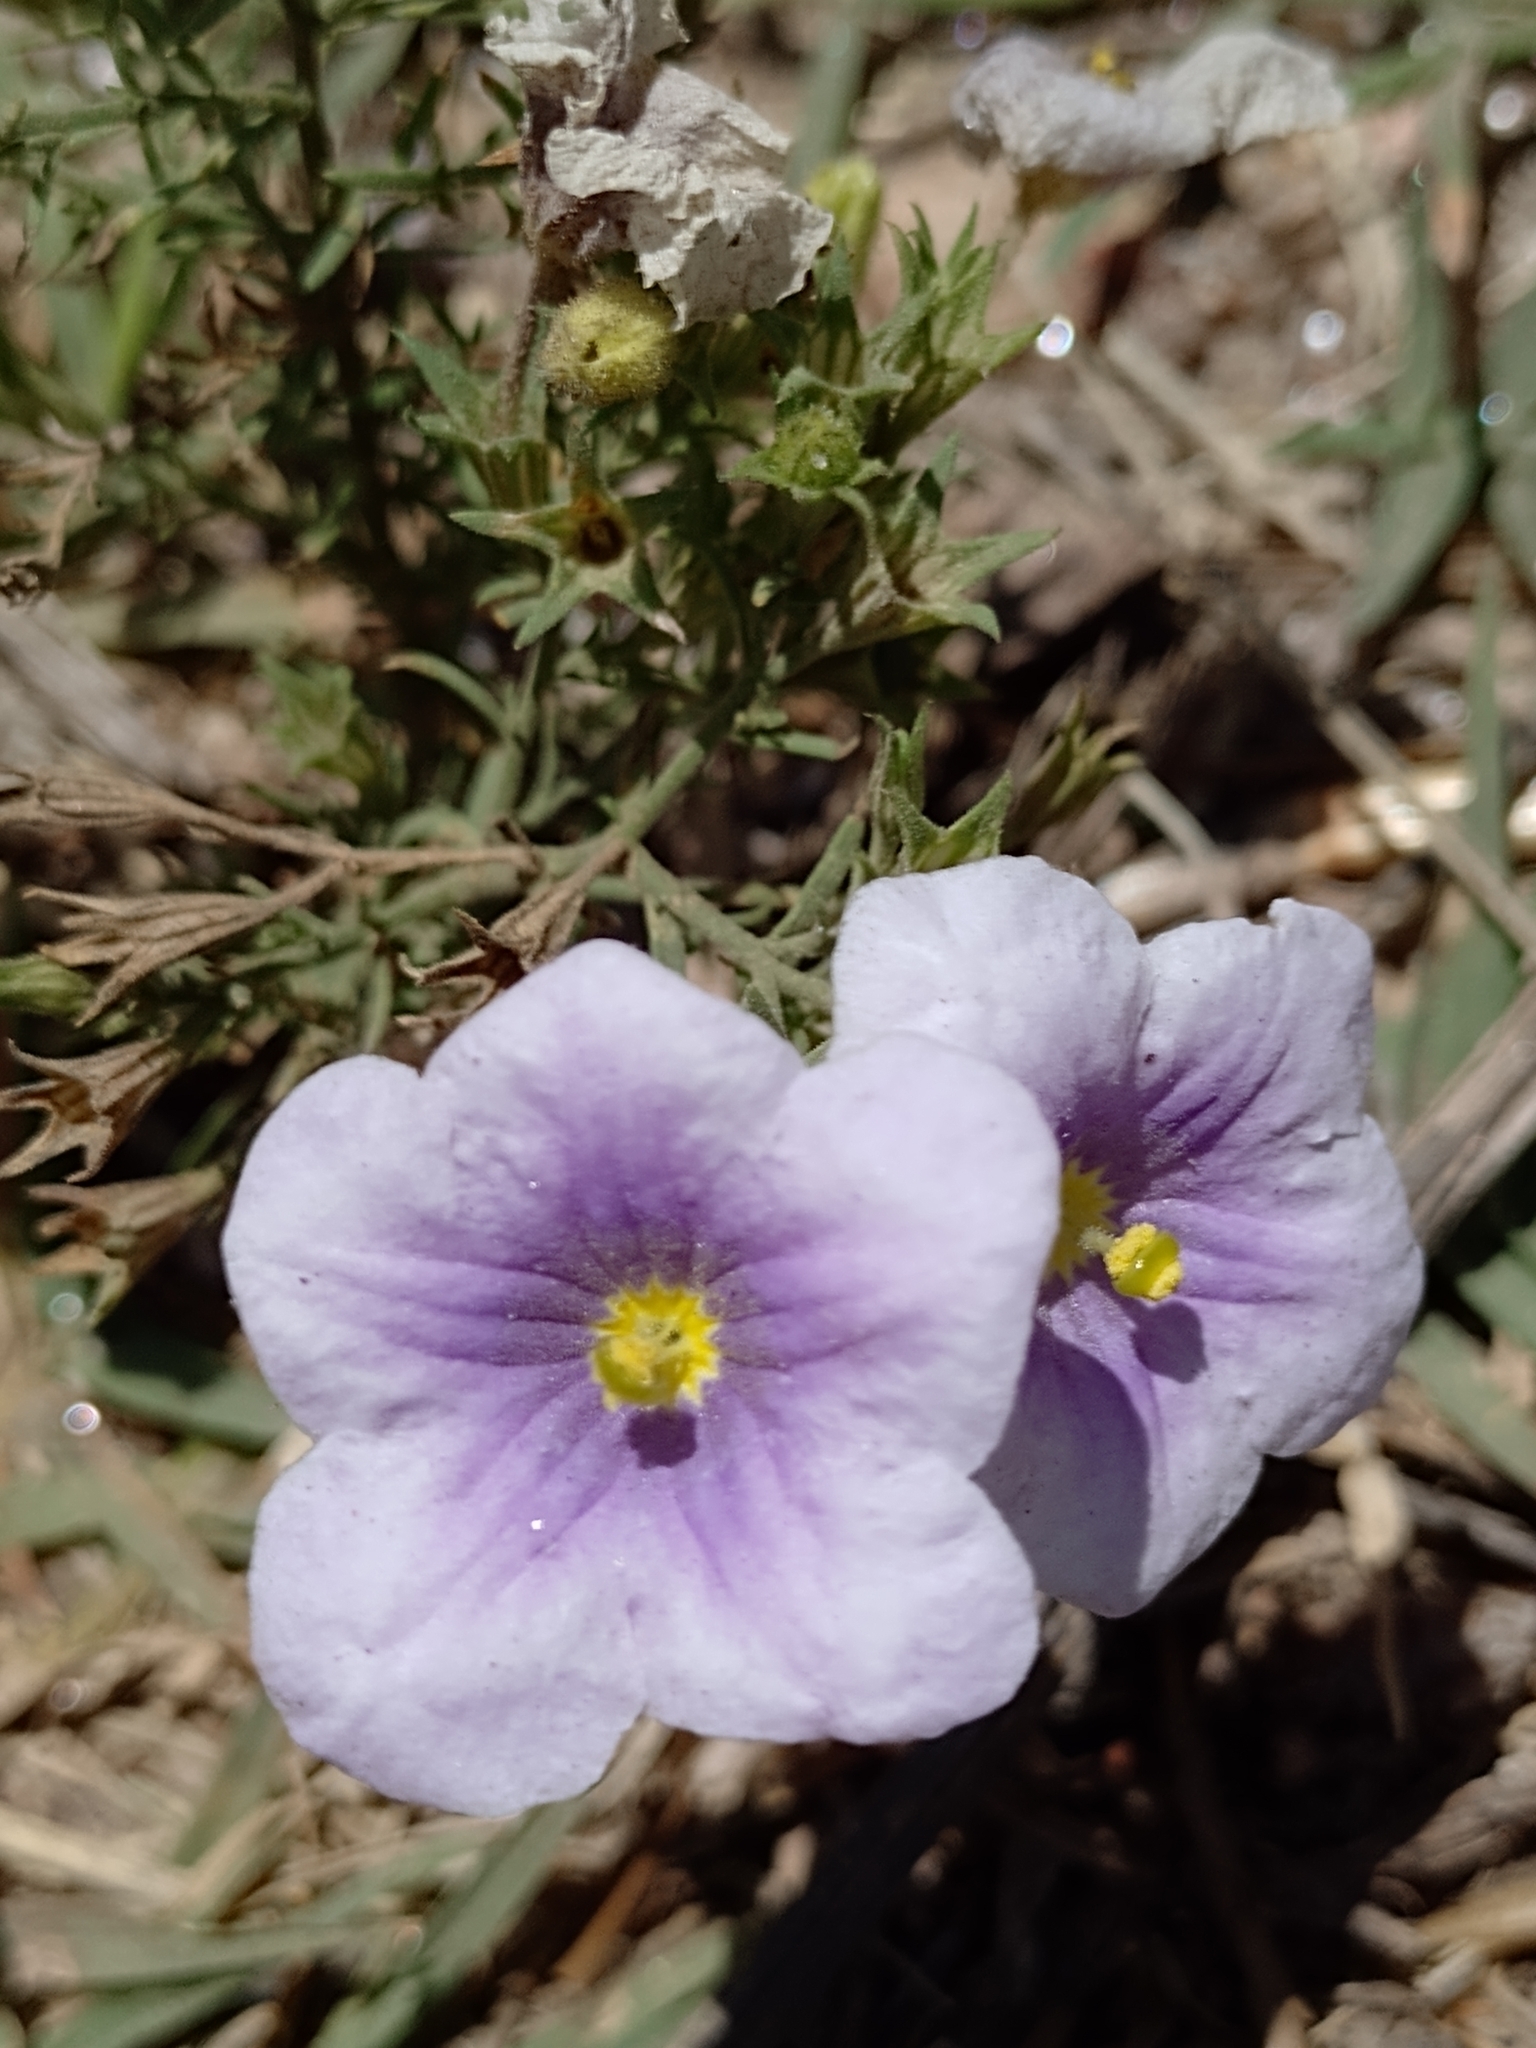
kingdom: Plantae
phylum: Tracheophyta
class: Magnoliopsida
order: Solanales
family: Solanaceae
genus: Nierembergia
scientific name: Nierembergia linariifolia
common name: Dwarf cupflower
